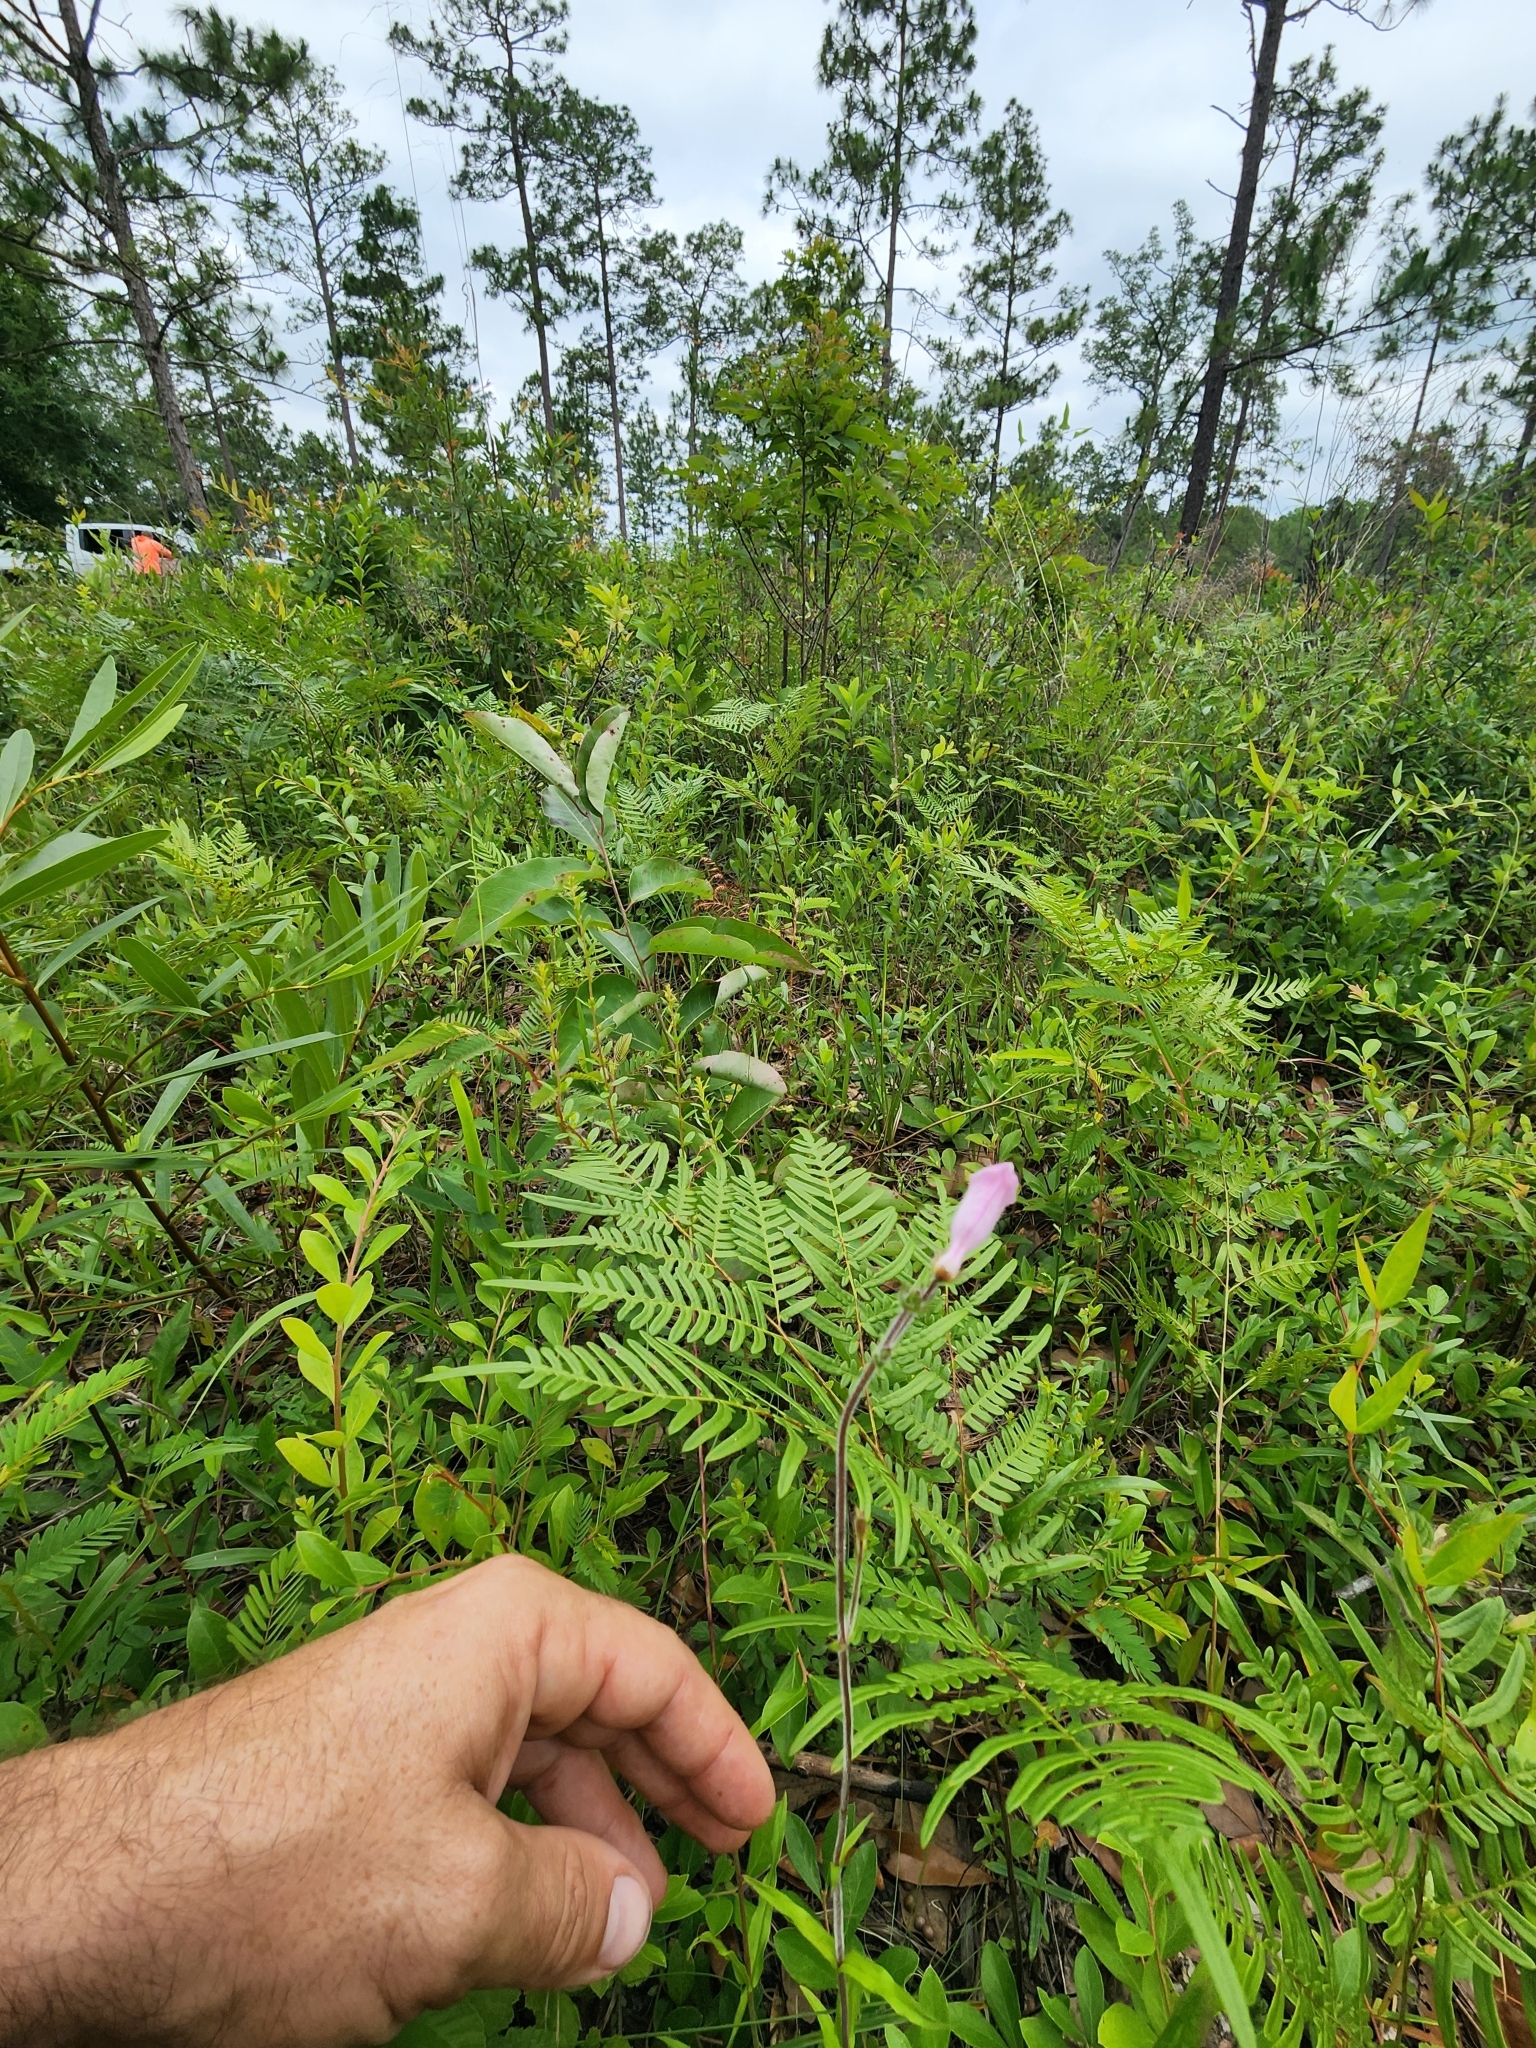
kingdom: Plantae
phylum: Tracheophyta
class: Magnoliopsida
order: Lamiales
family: Plantaginaceae
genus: Penstemon
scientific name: Penstemon australis
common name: Southeastern beardtongue
